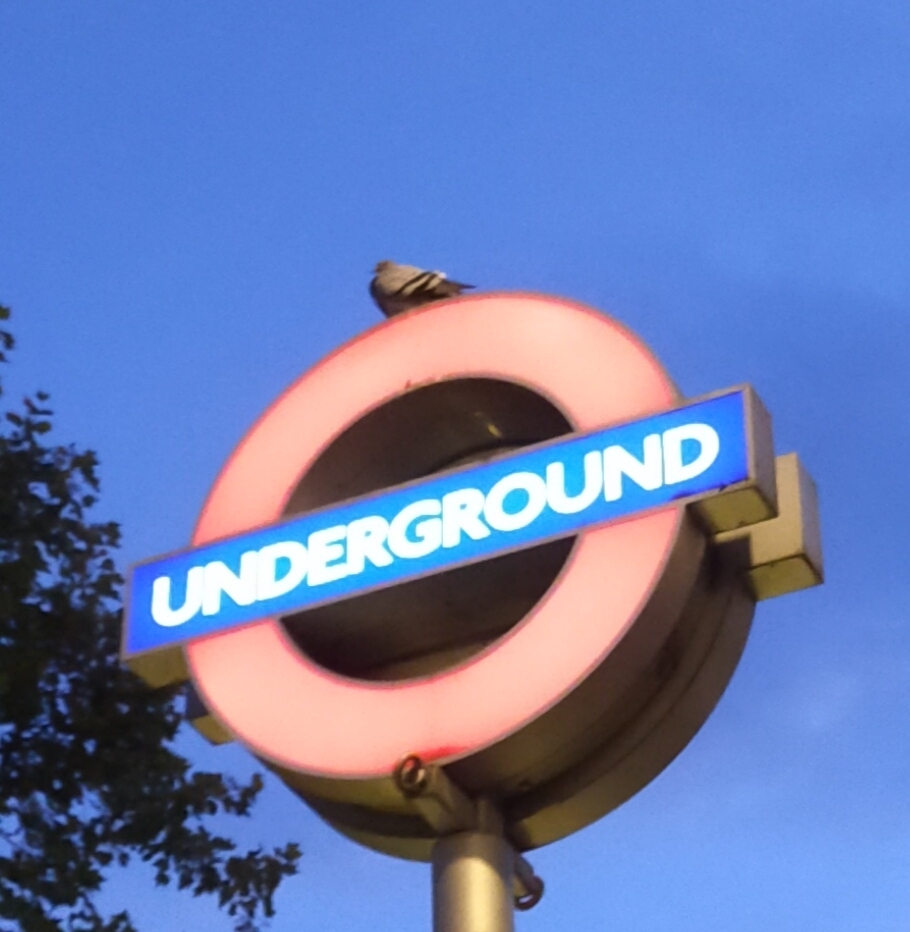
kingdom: Animalia
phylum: Chordata
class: Aves
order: Columbiformes
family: Columbidae
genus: Columba
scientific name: Columba livia
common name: Rock pigeon
